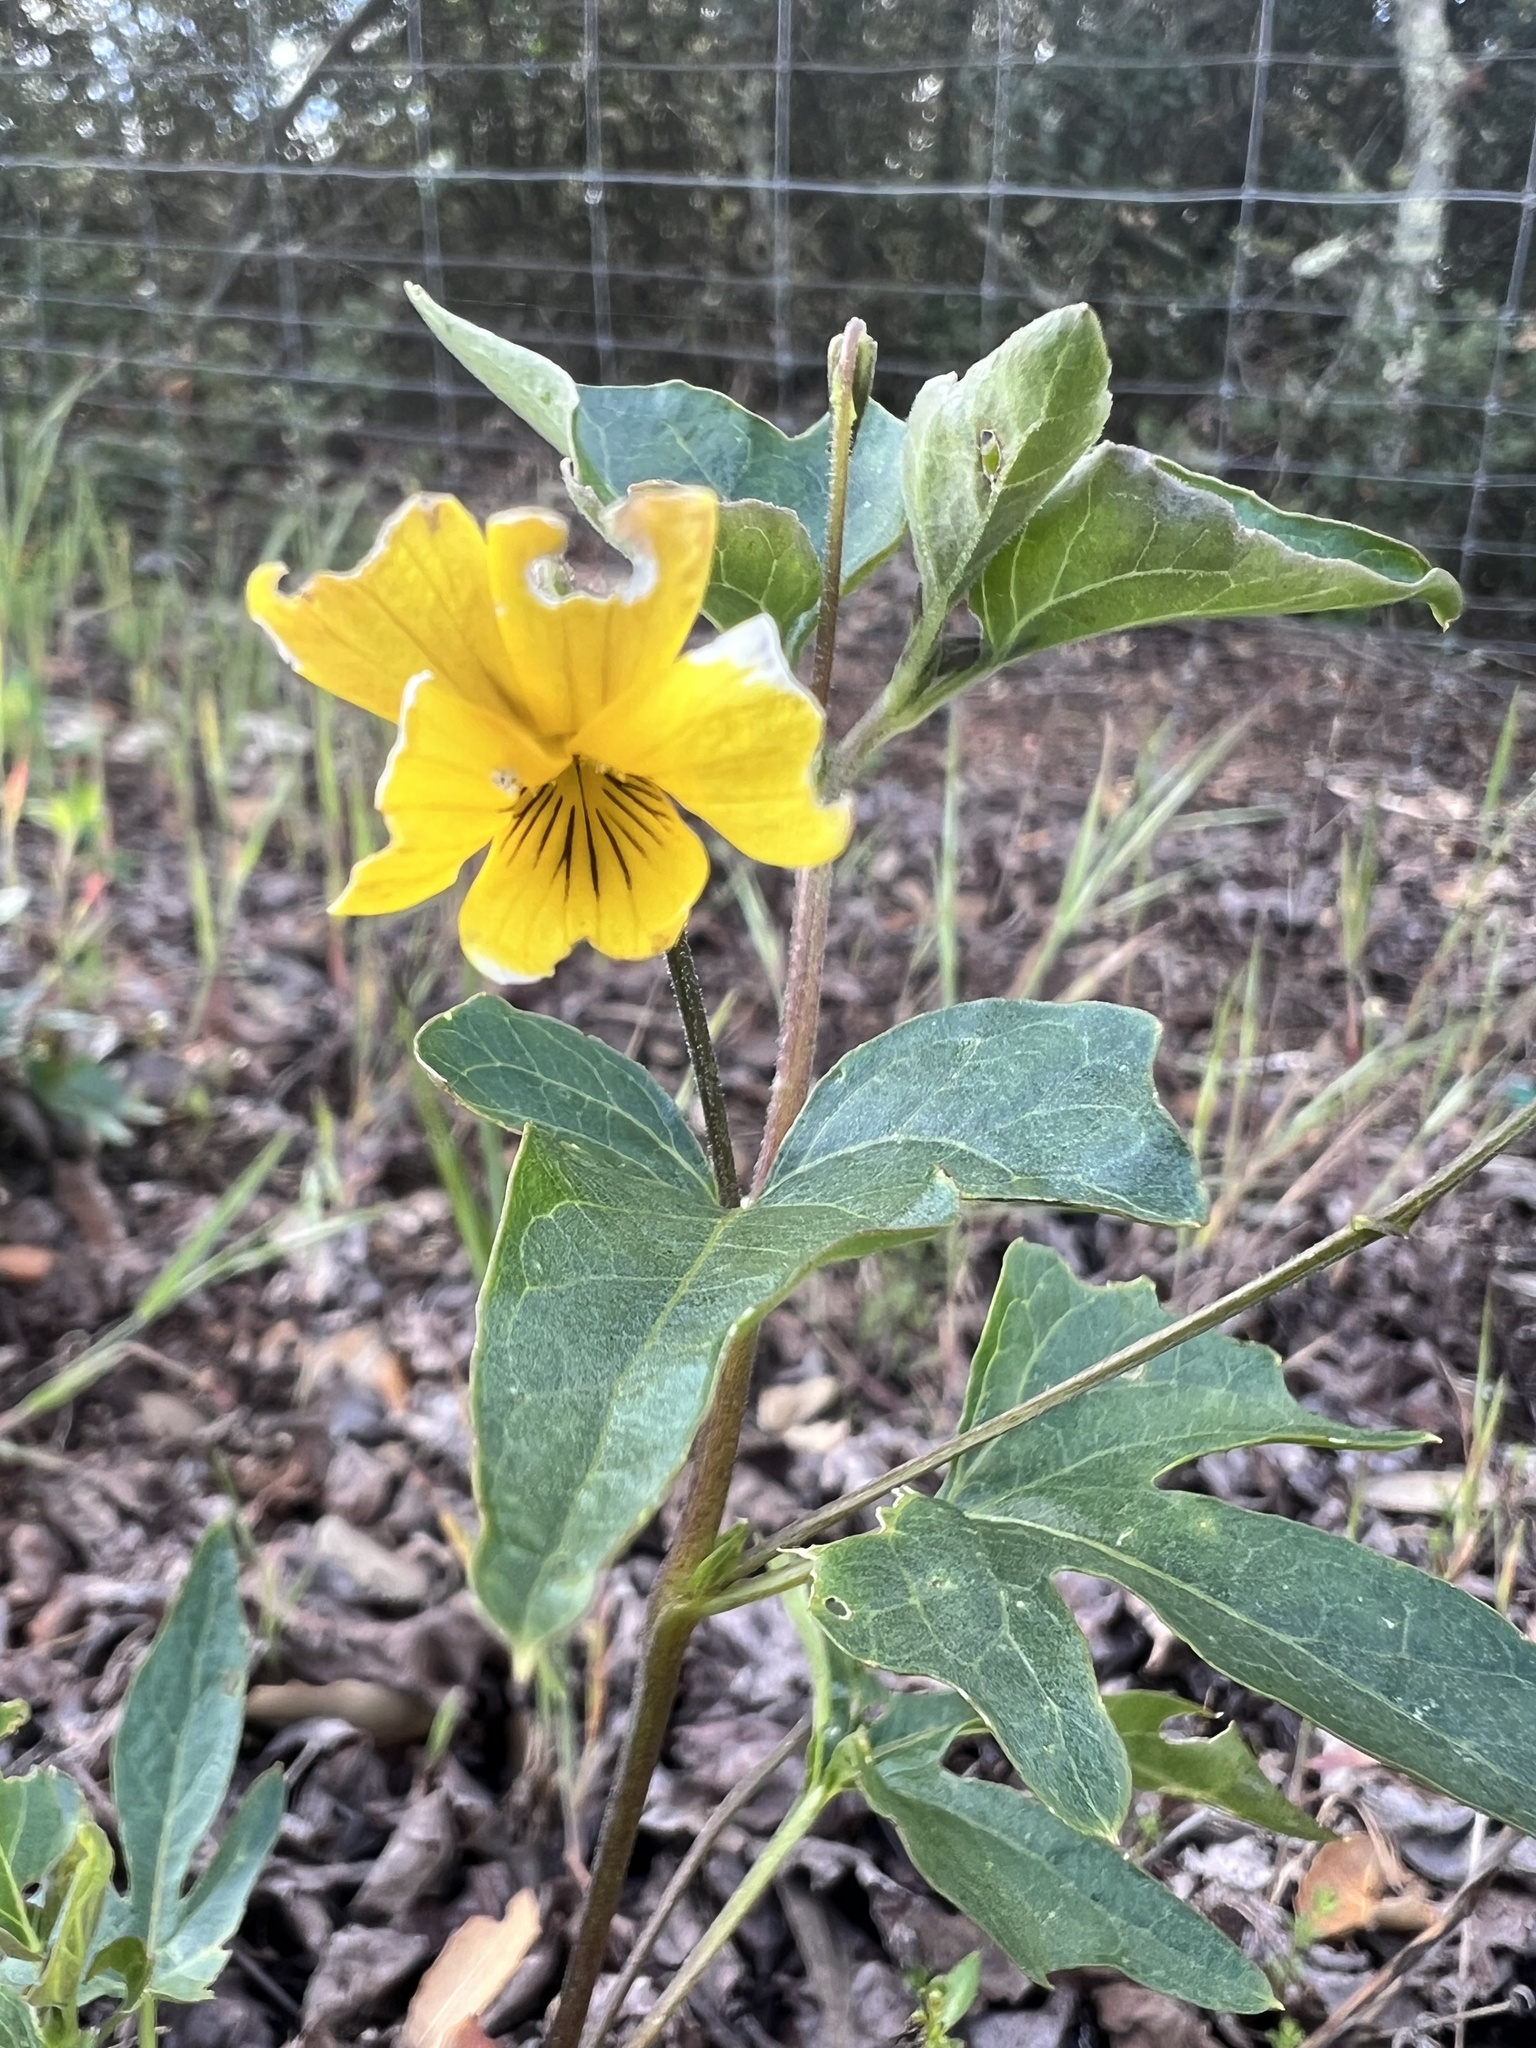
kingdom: Plantae
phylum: Tracheophyta
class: Magnoliopsida
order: Malpighiales
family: Violaceae
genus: Viola
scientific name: Viola lobata
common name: Pine violet
